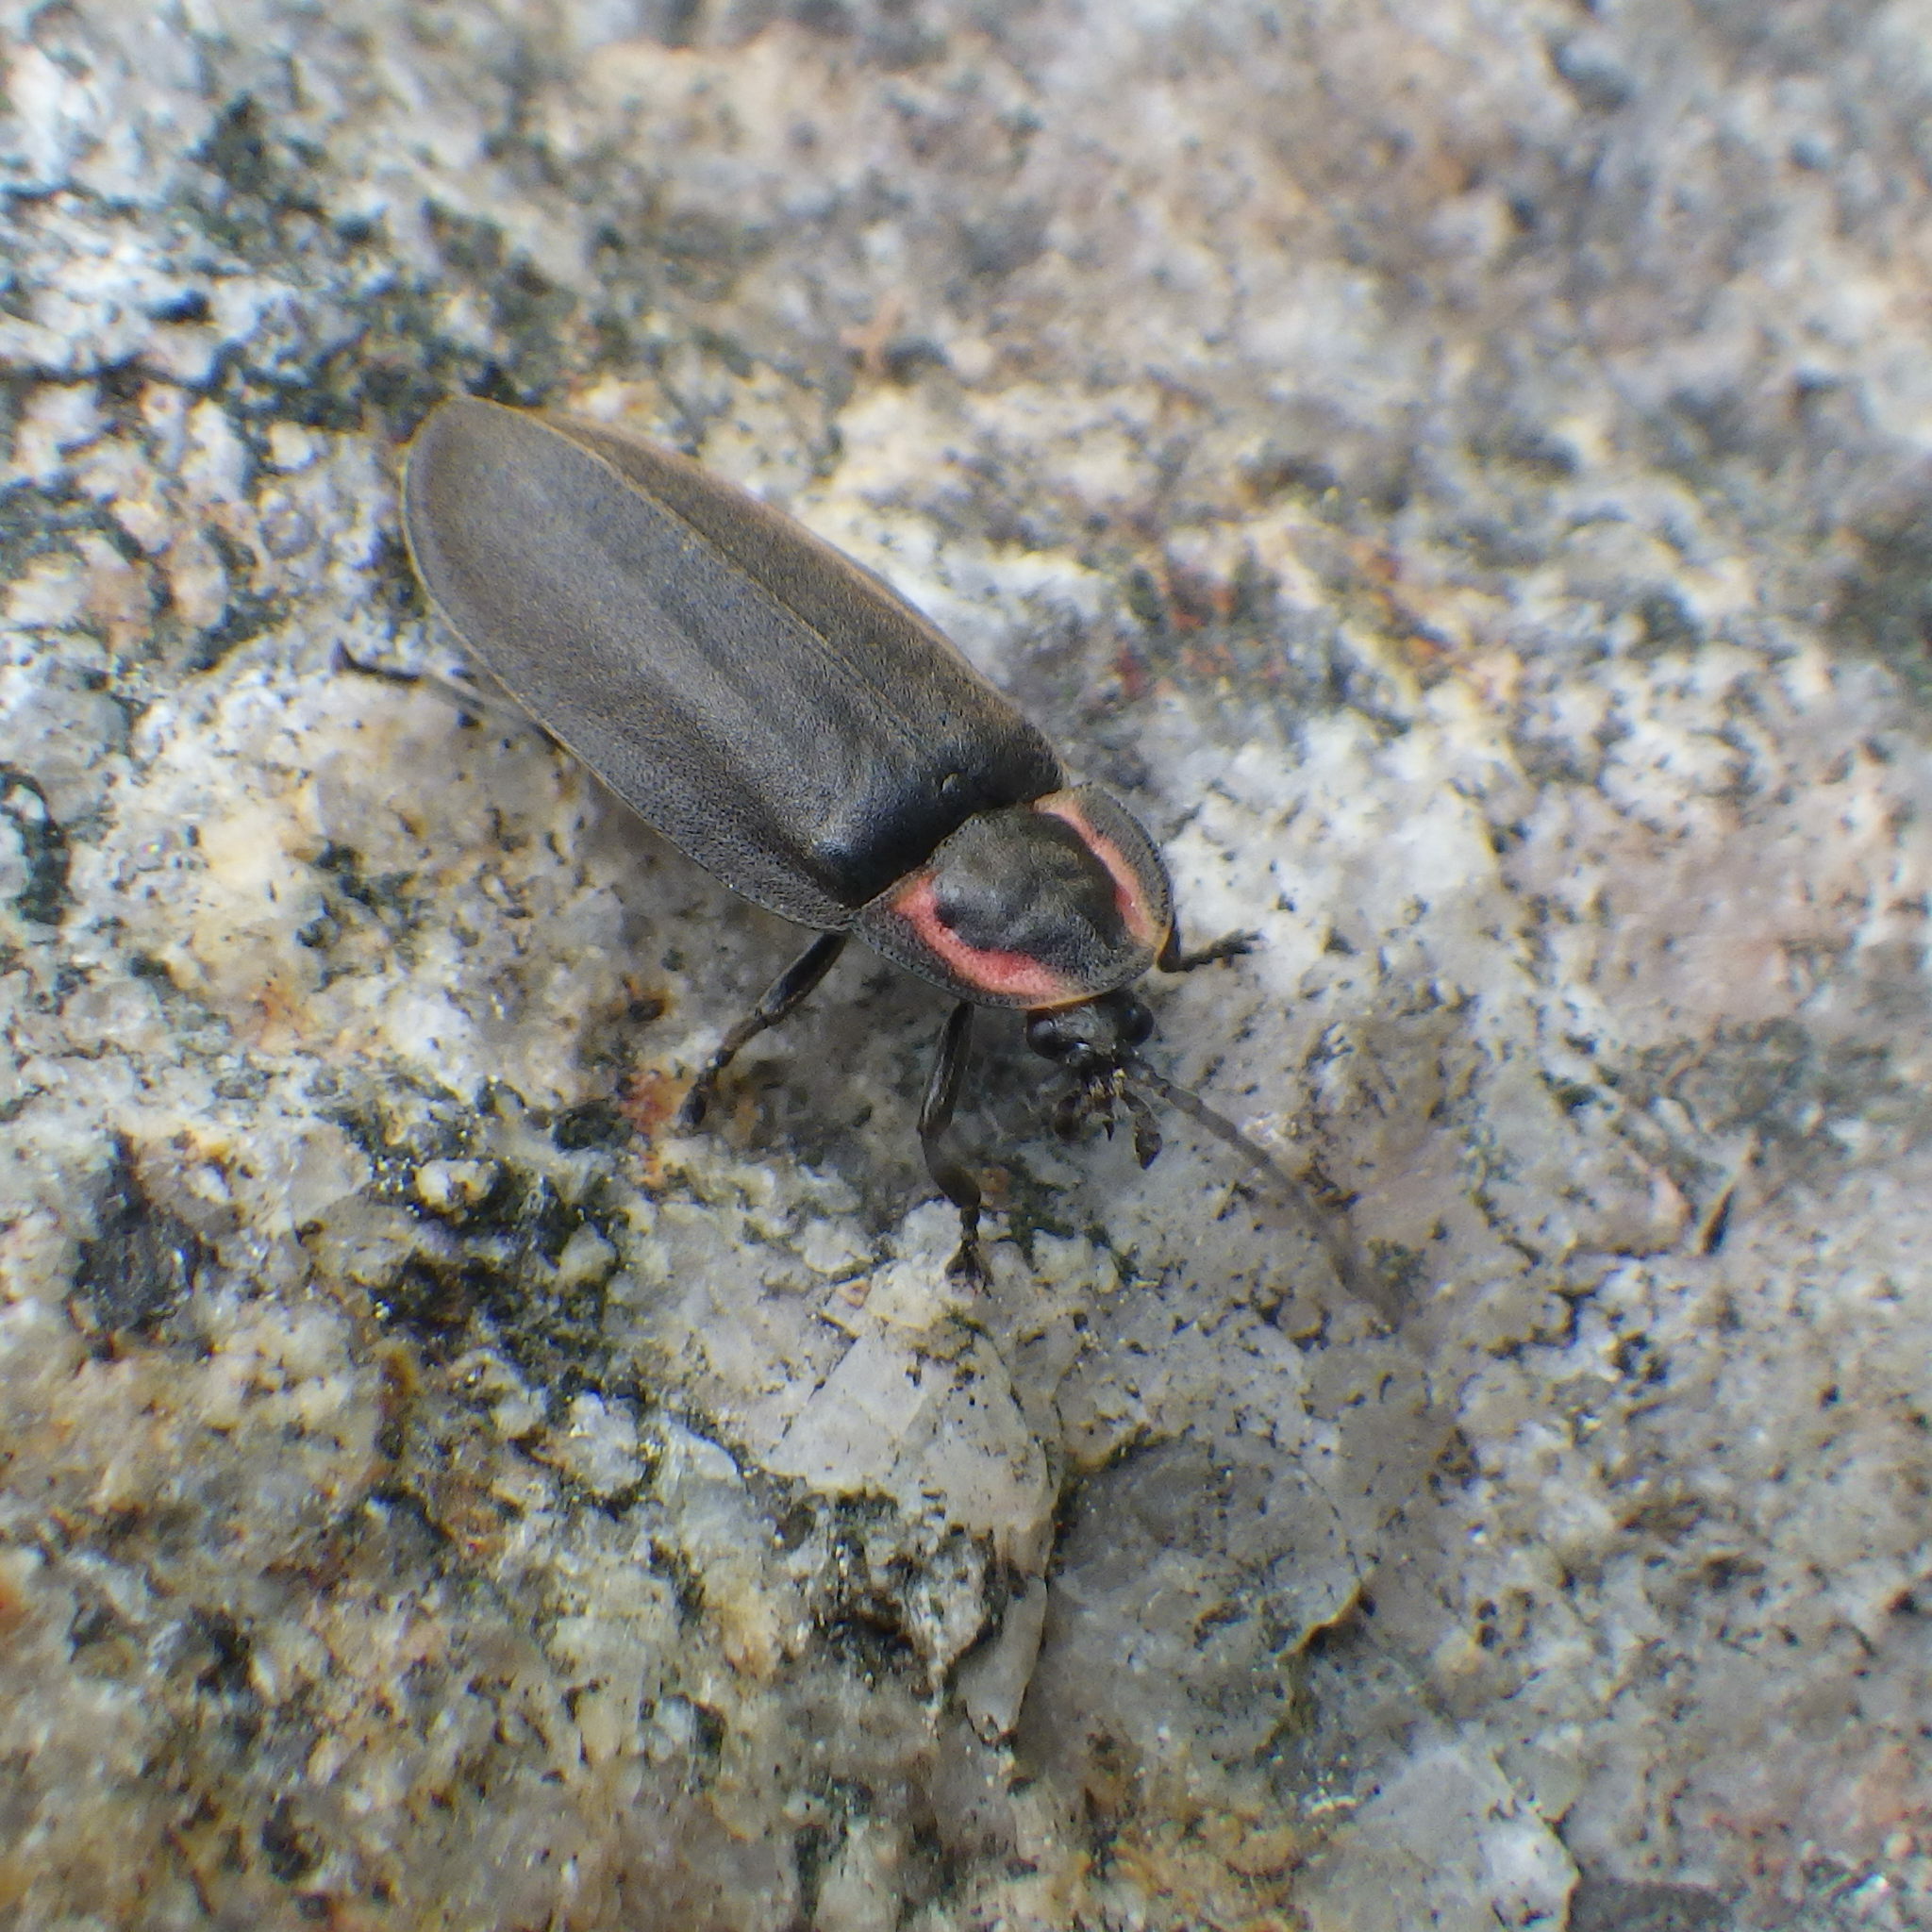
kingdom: Animalia
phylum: Arthropoda
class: Insecta
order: Coleoptera
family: Lampyridae
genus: Photinus
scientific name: Photinus corrusca
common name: Winter firefly
